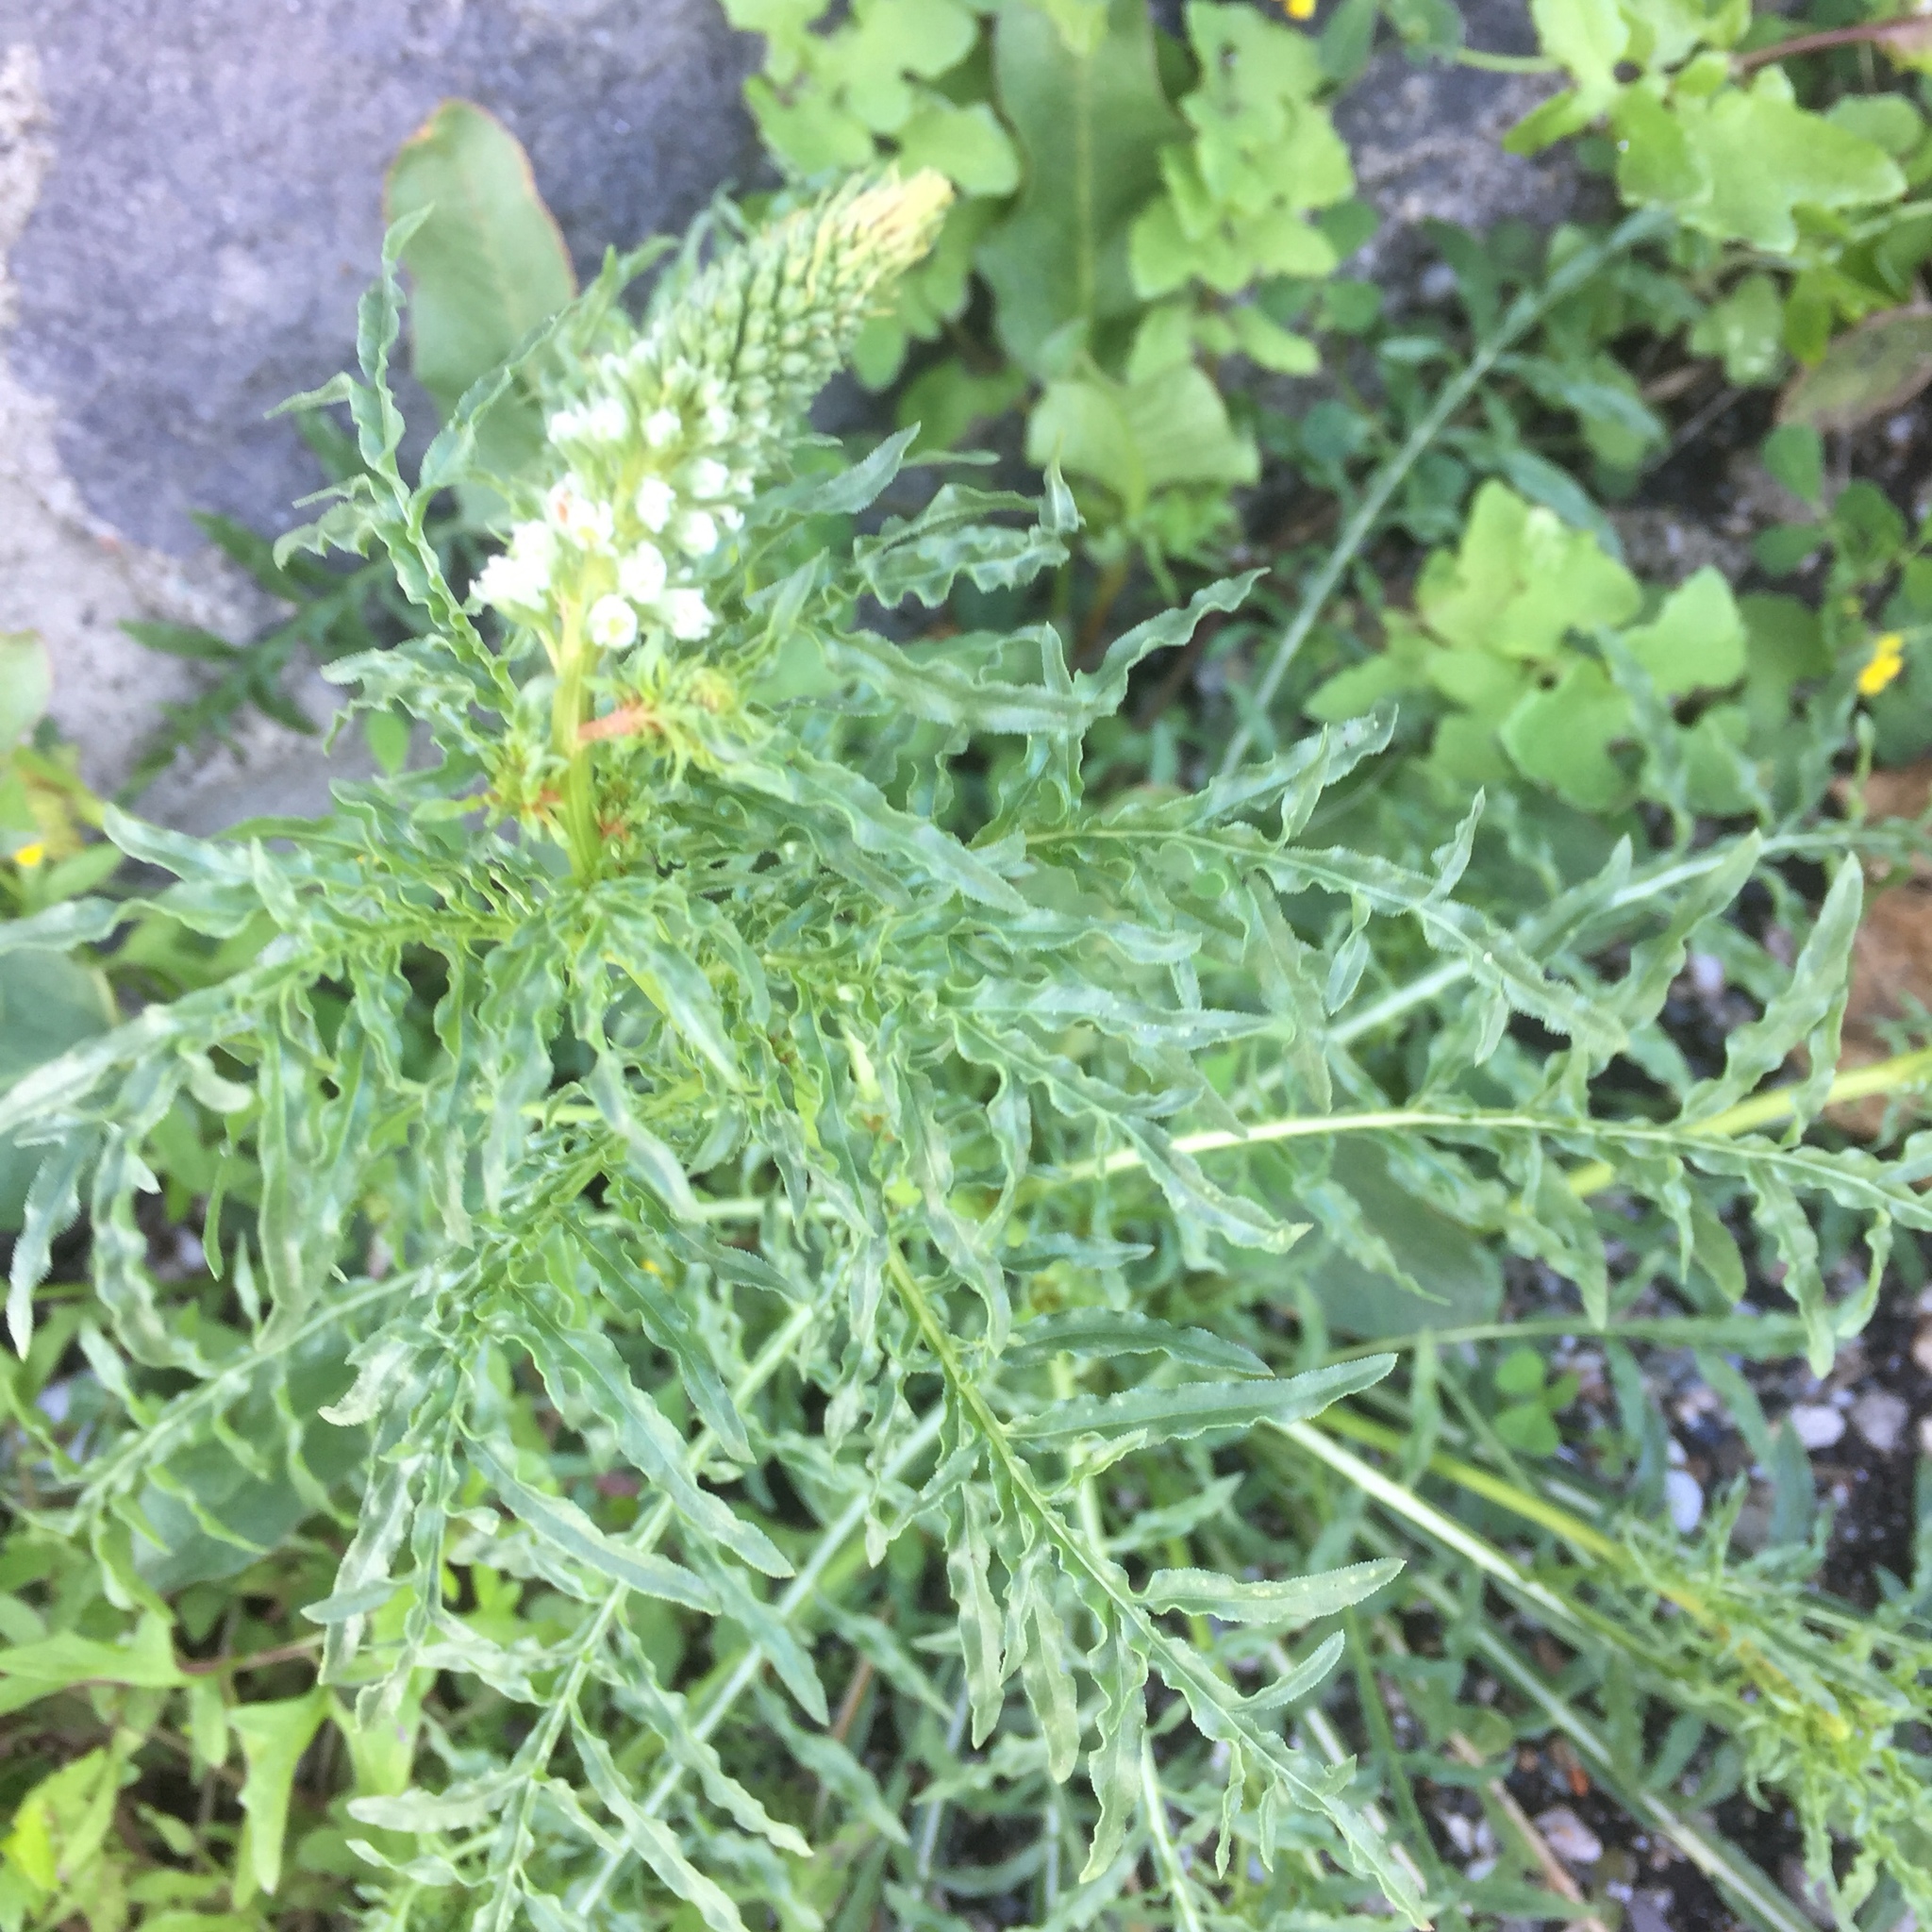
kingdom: Plantae
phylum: Tracheophyta
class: Magnoliopsida
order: Brassicales
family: Resedaceae
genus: Reseda
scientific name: Reseda alba
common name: White mignonette
